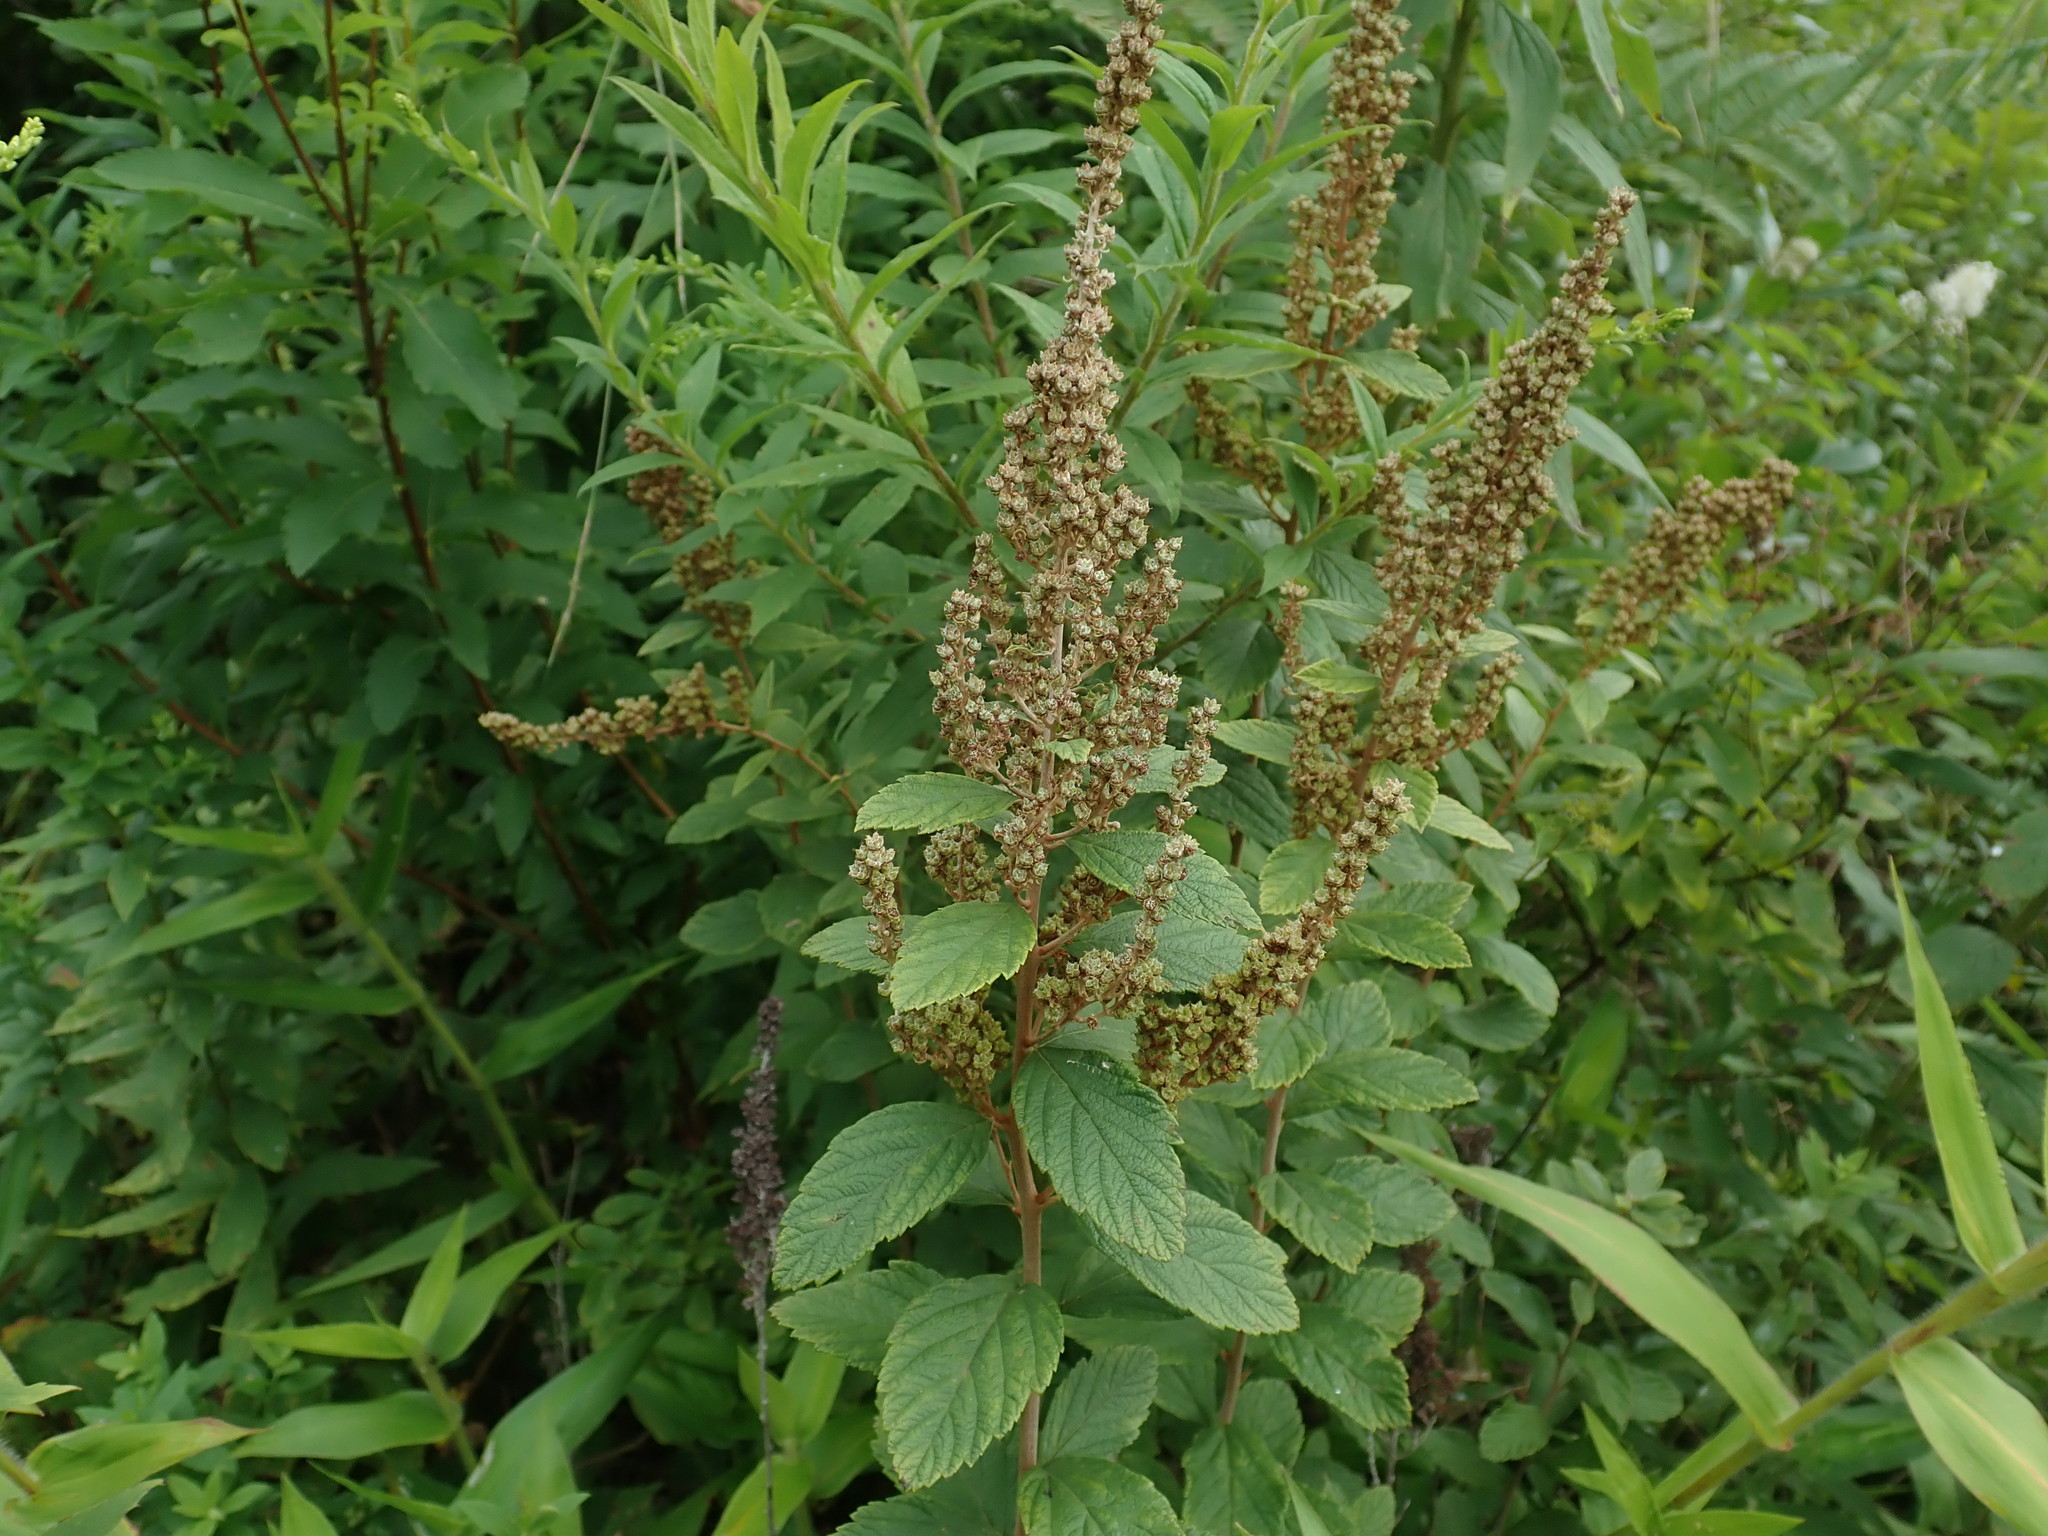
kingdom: Plantae
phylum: Tracheophyta
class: Magnoliopsida
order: Rosales
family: Rosaceae
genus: Spiraea
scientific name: Spiraea tomentosa
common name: Hardhack
